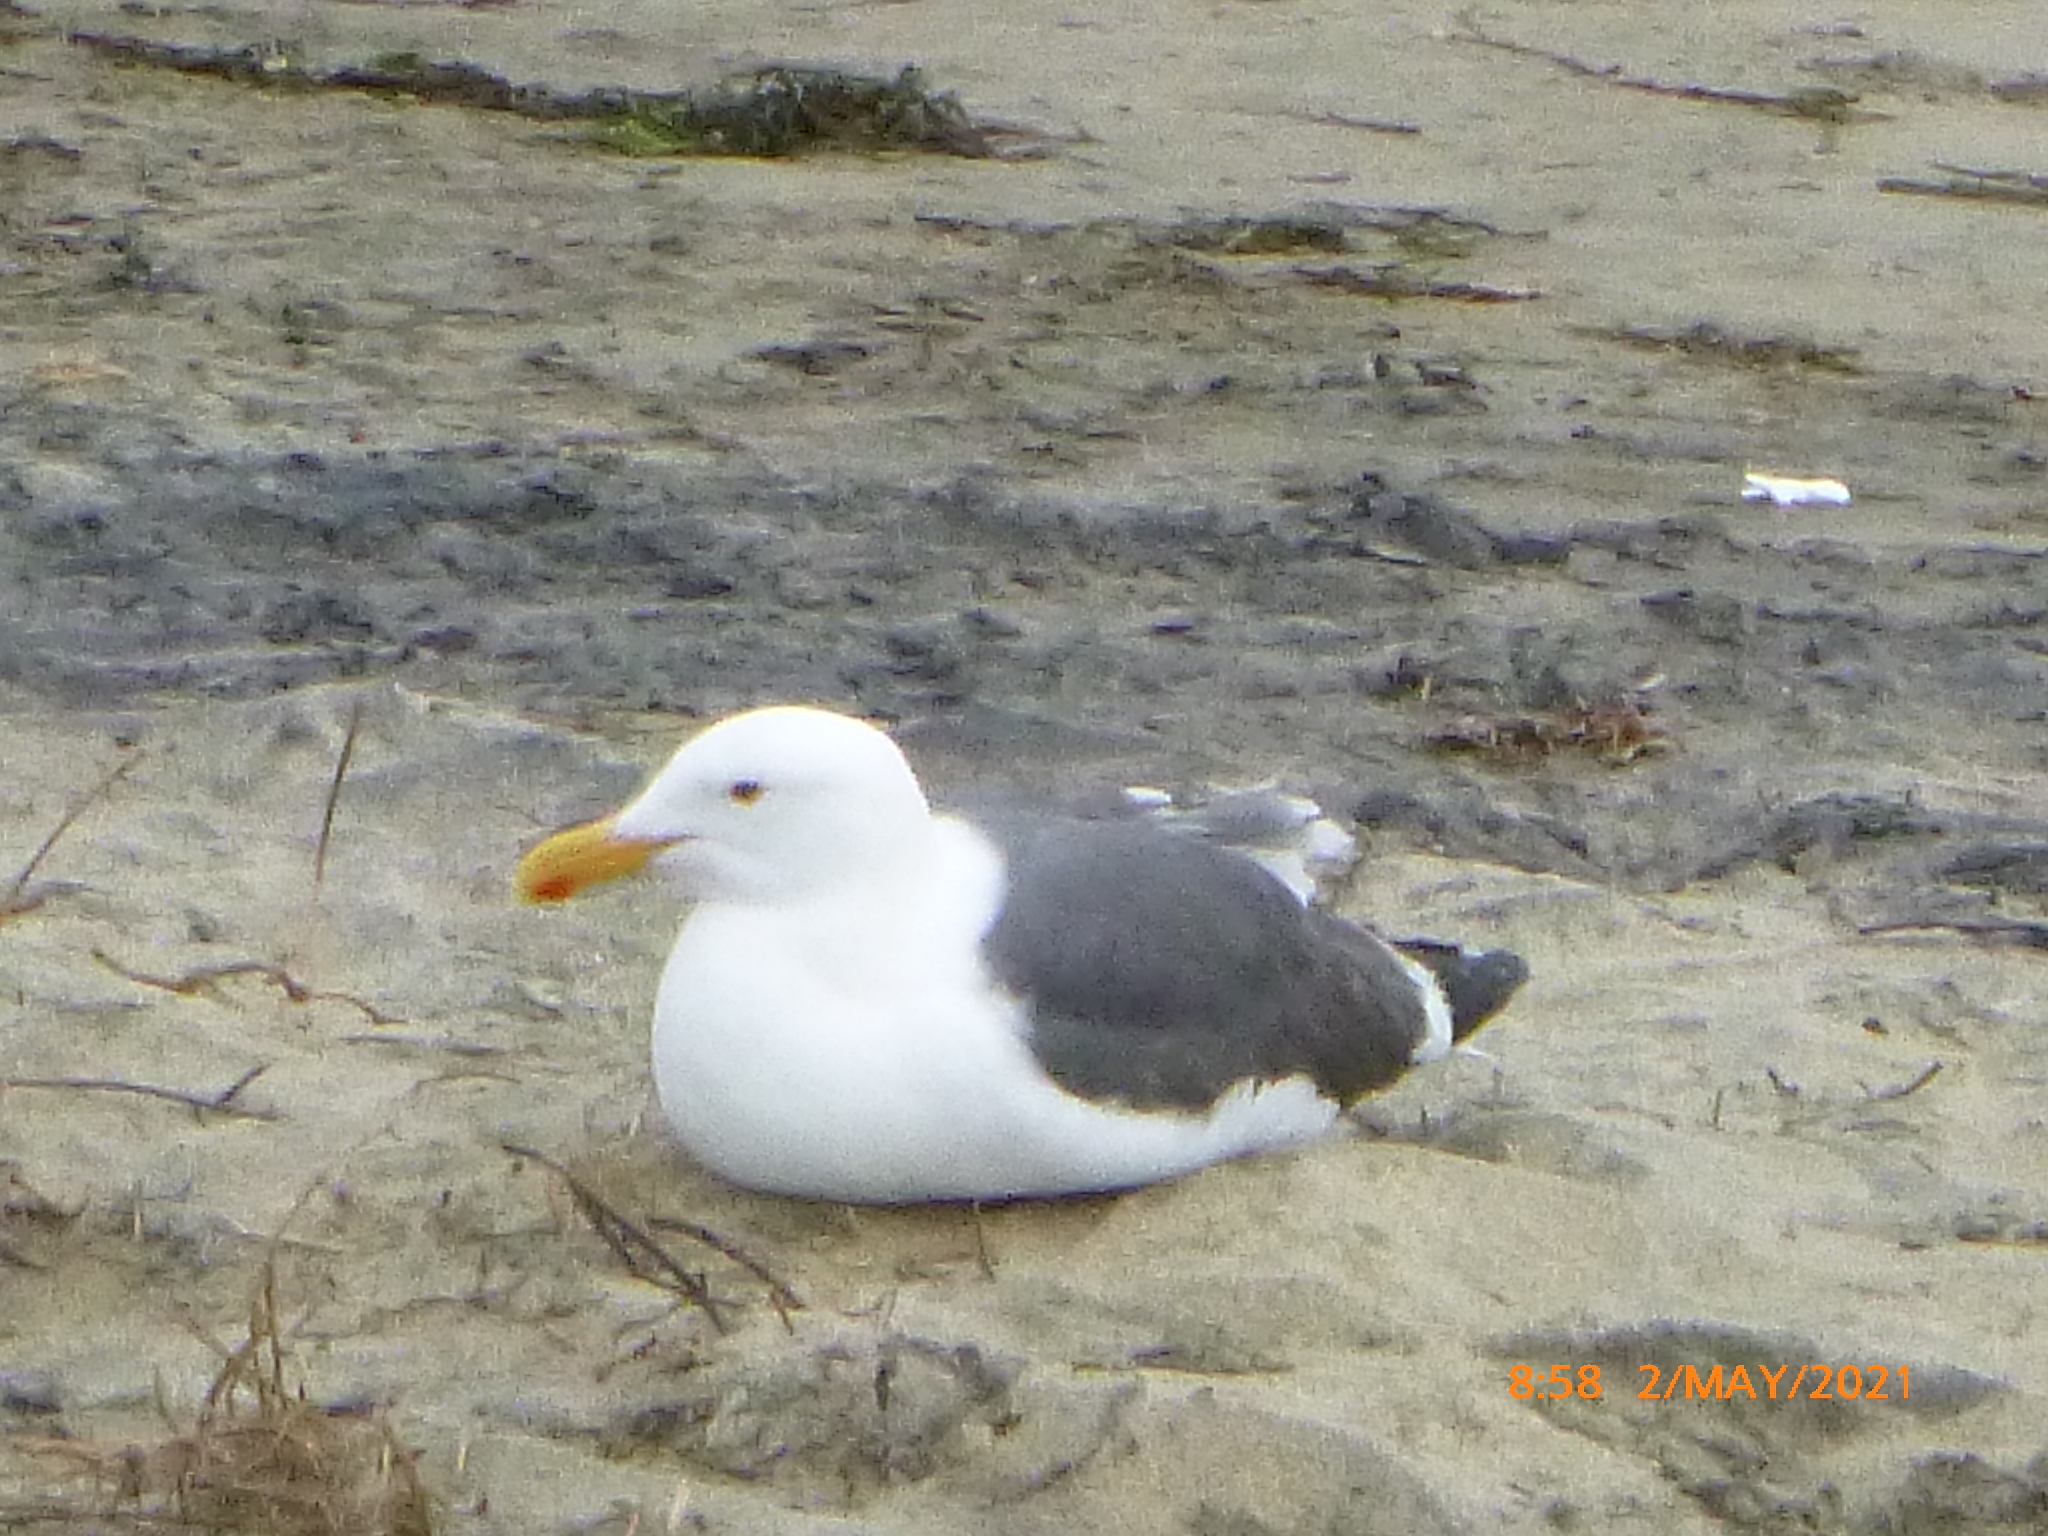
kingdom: Animalia
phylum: Chordata
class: Aves
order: Charadriiformes
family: Laridae
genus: Larus
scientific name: Larus occidentalis
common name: Western gull
